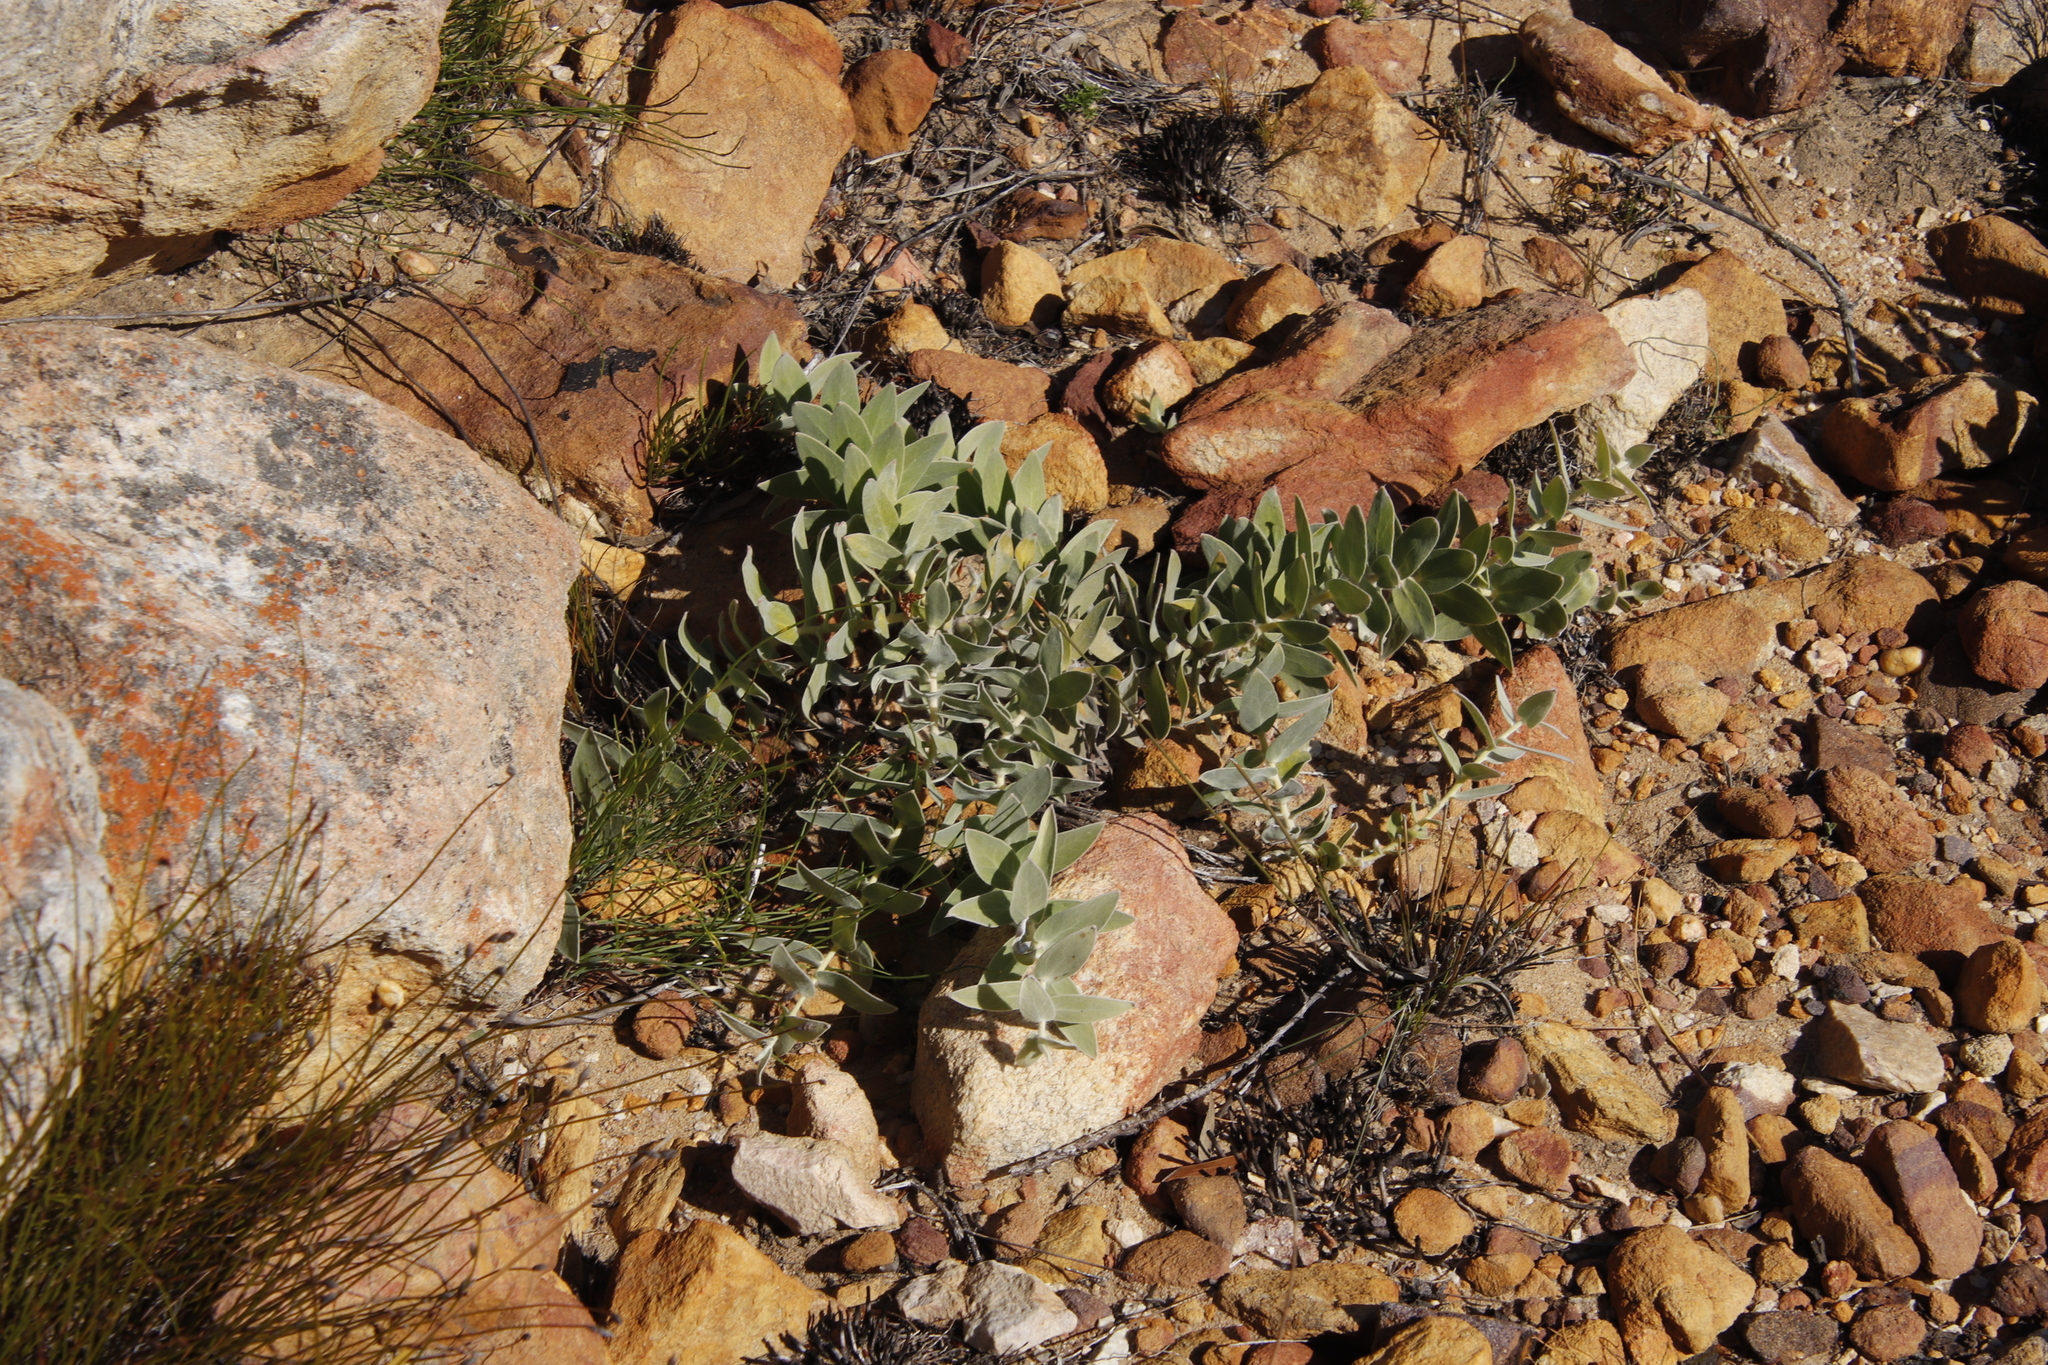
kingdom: Plantae
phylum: Tracheophyta
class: Magnoliopsida
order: Proteales
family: Proteaceae
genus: Leucospermum
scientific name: Leucospermum cordatum
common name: Heart-leaf pincushion
